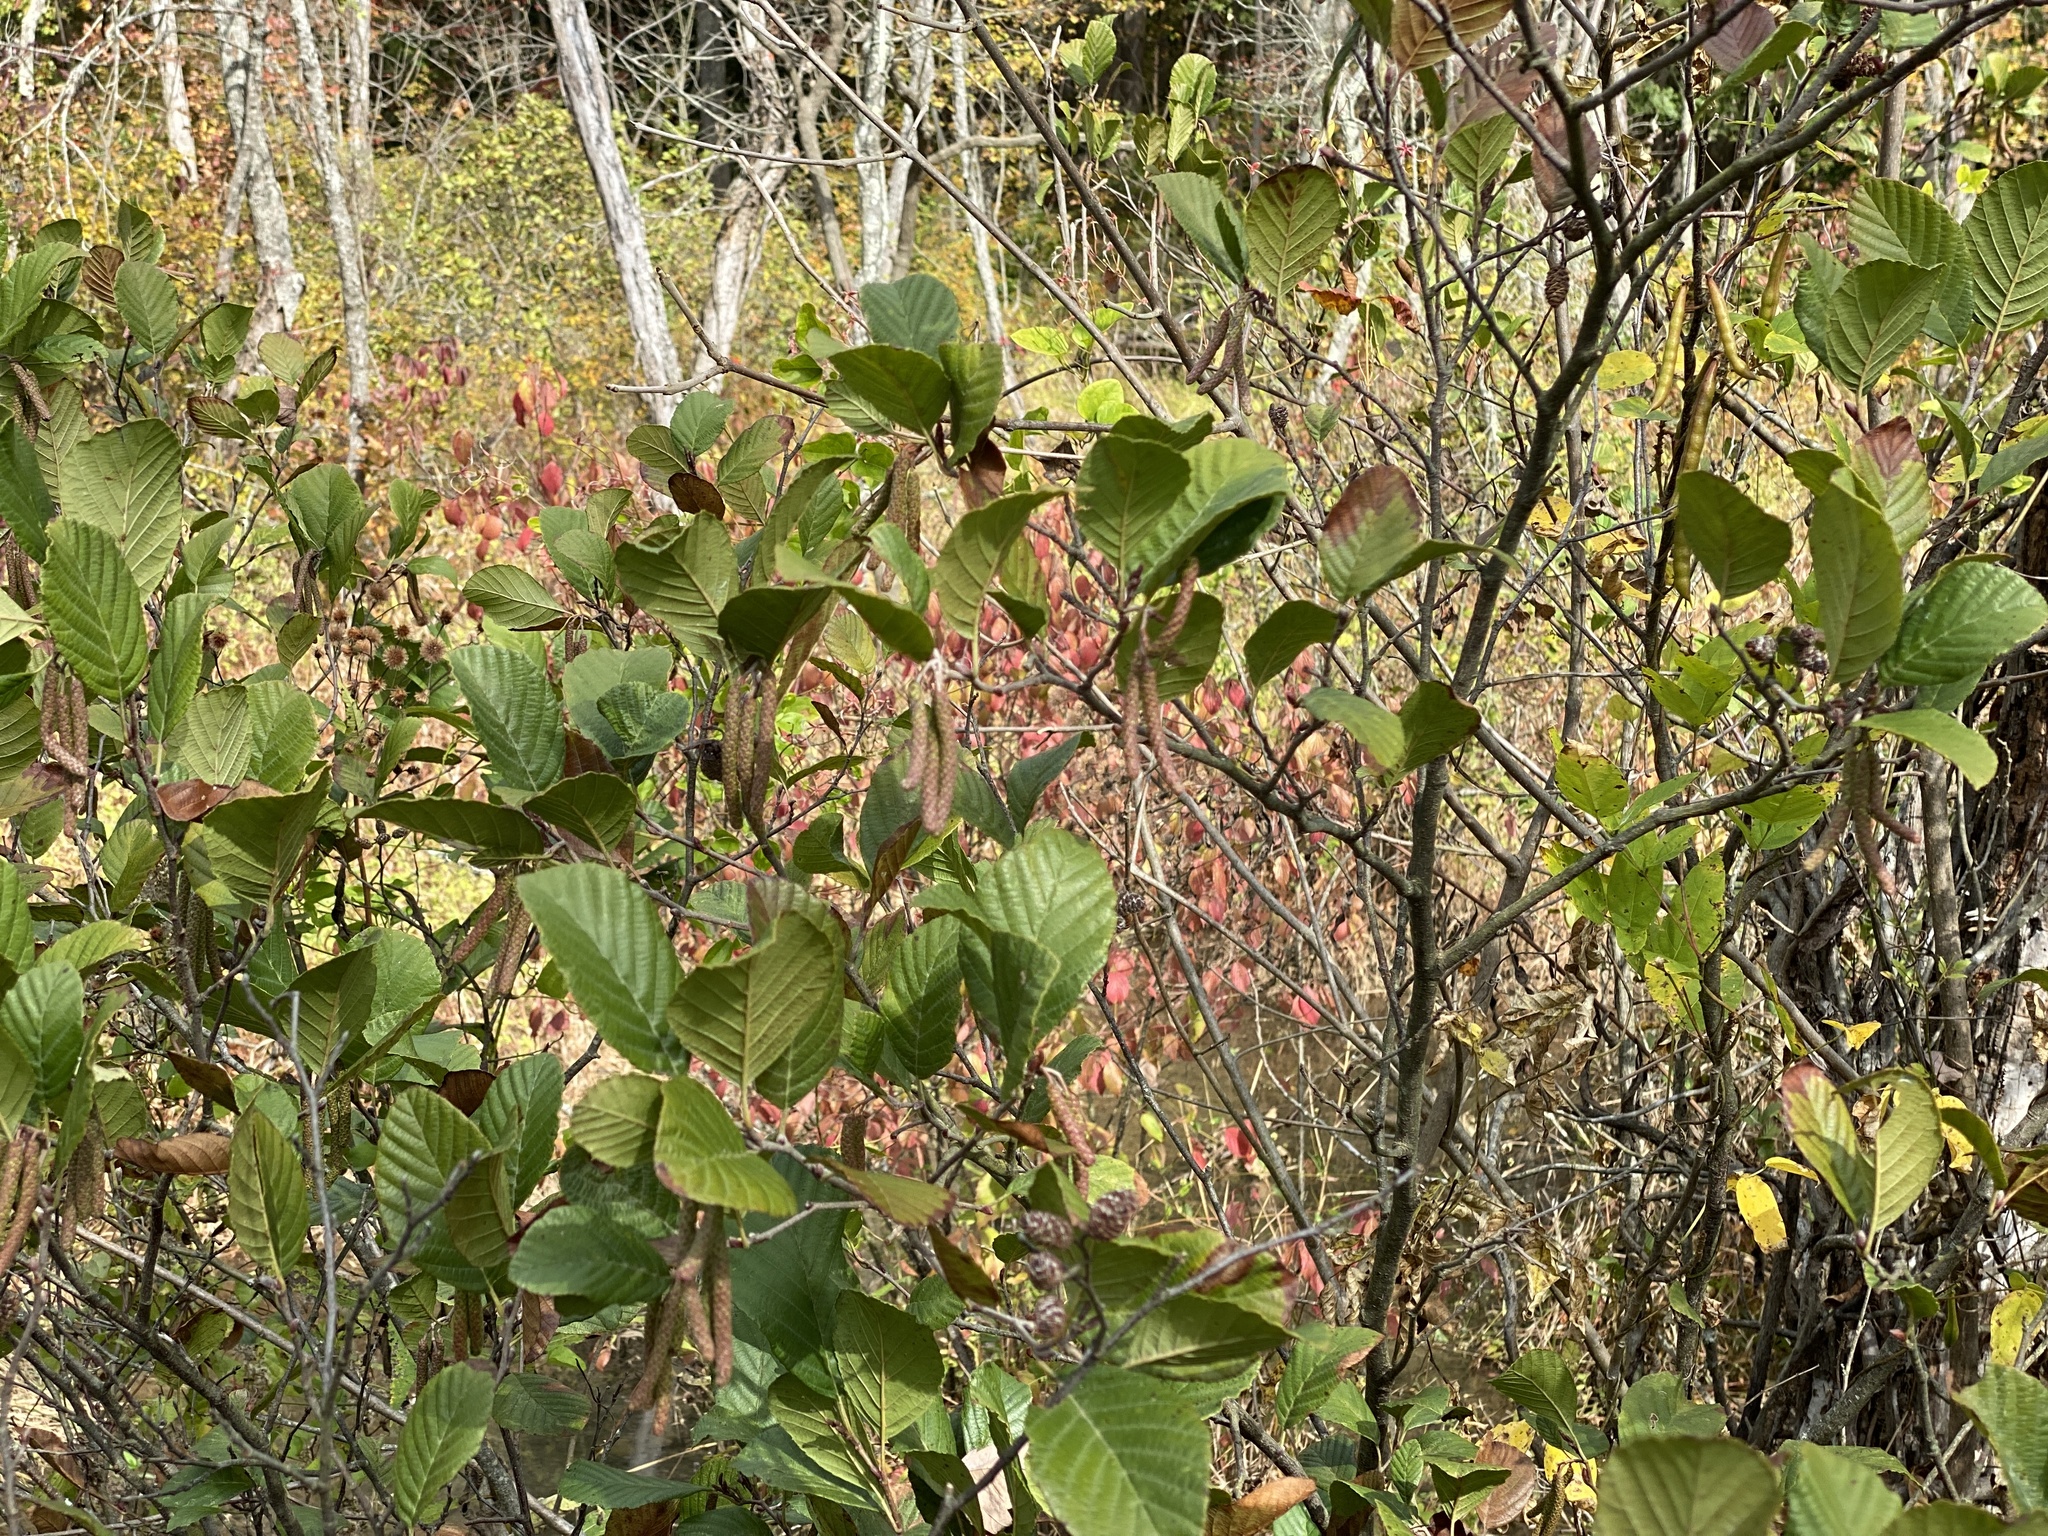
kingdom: Plantae
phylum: Tracheophyta
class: Magnoliopsida
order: Fagales
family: Betulaceae
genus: Alnus
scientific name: Alnus serrulata
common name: Hazel alder
